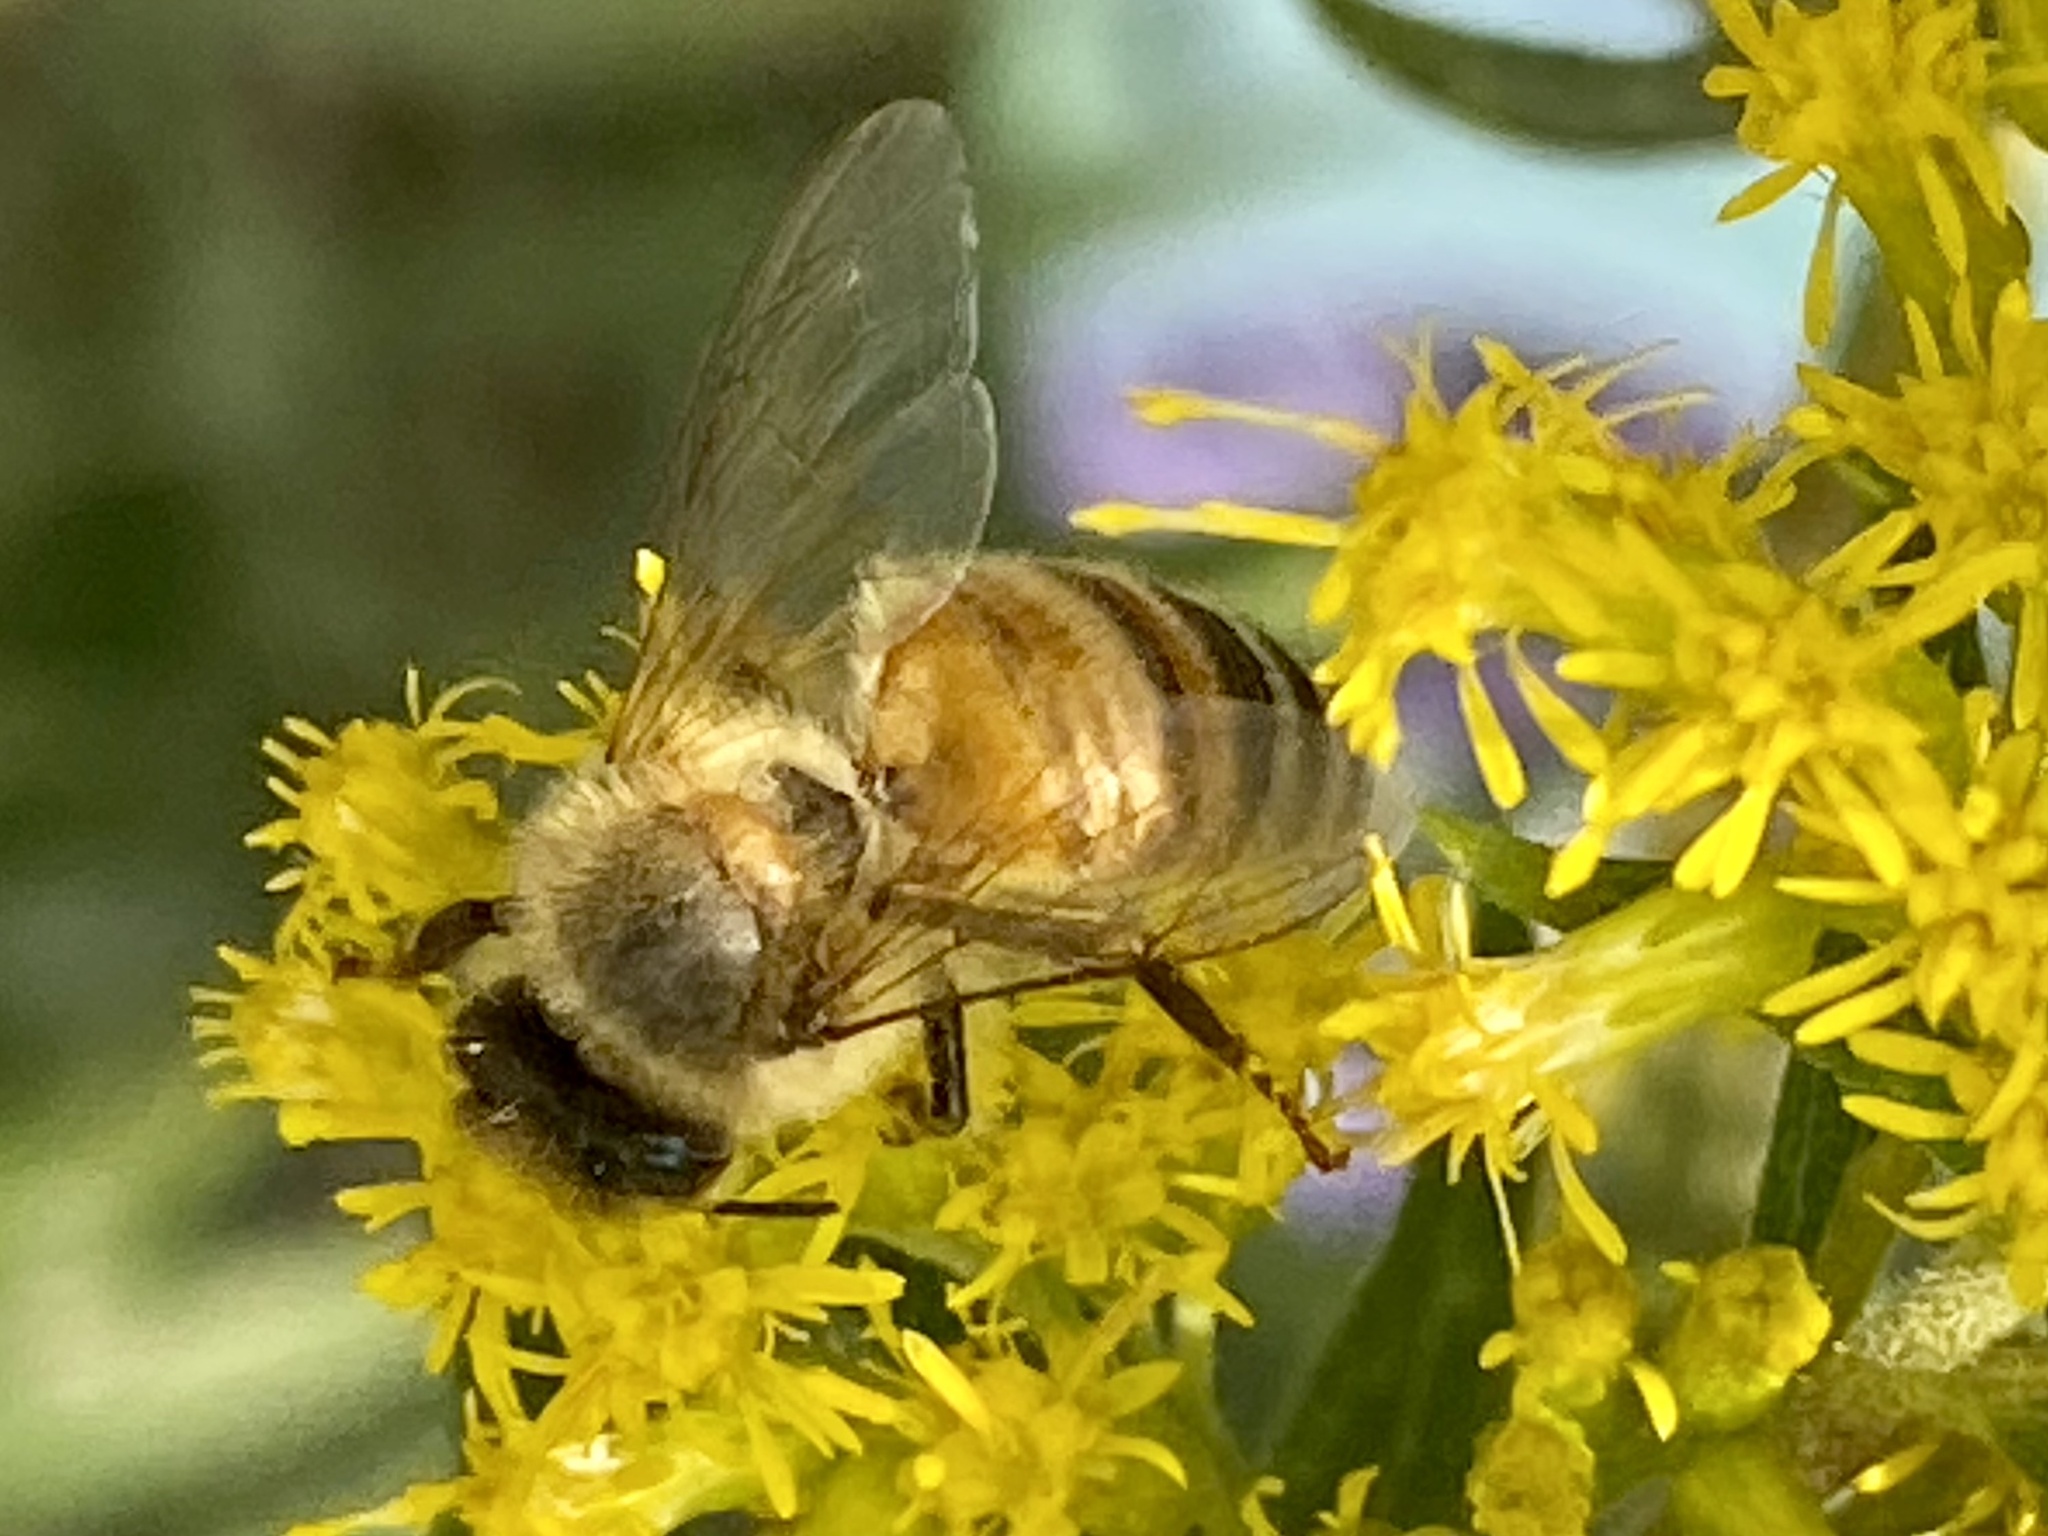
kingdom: Animalia
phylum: Arthropoda
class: Insecta
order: Hymenoptera
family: Apidae
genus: Apis
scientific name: Apis mellifera
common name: Honey bee
